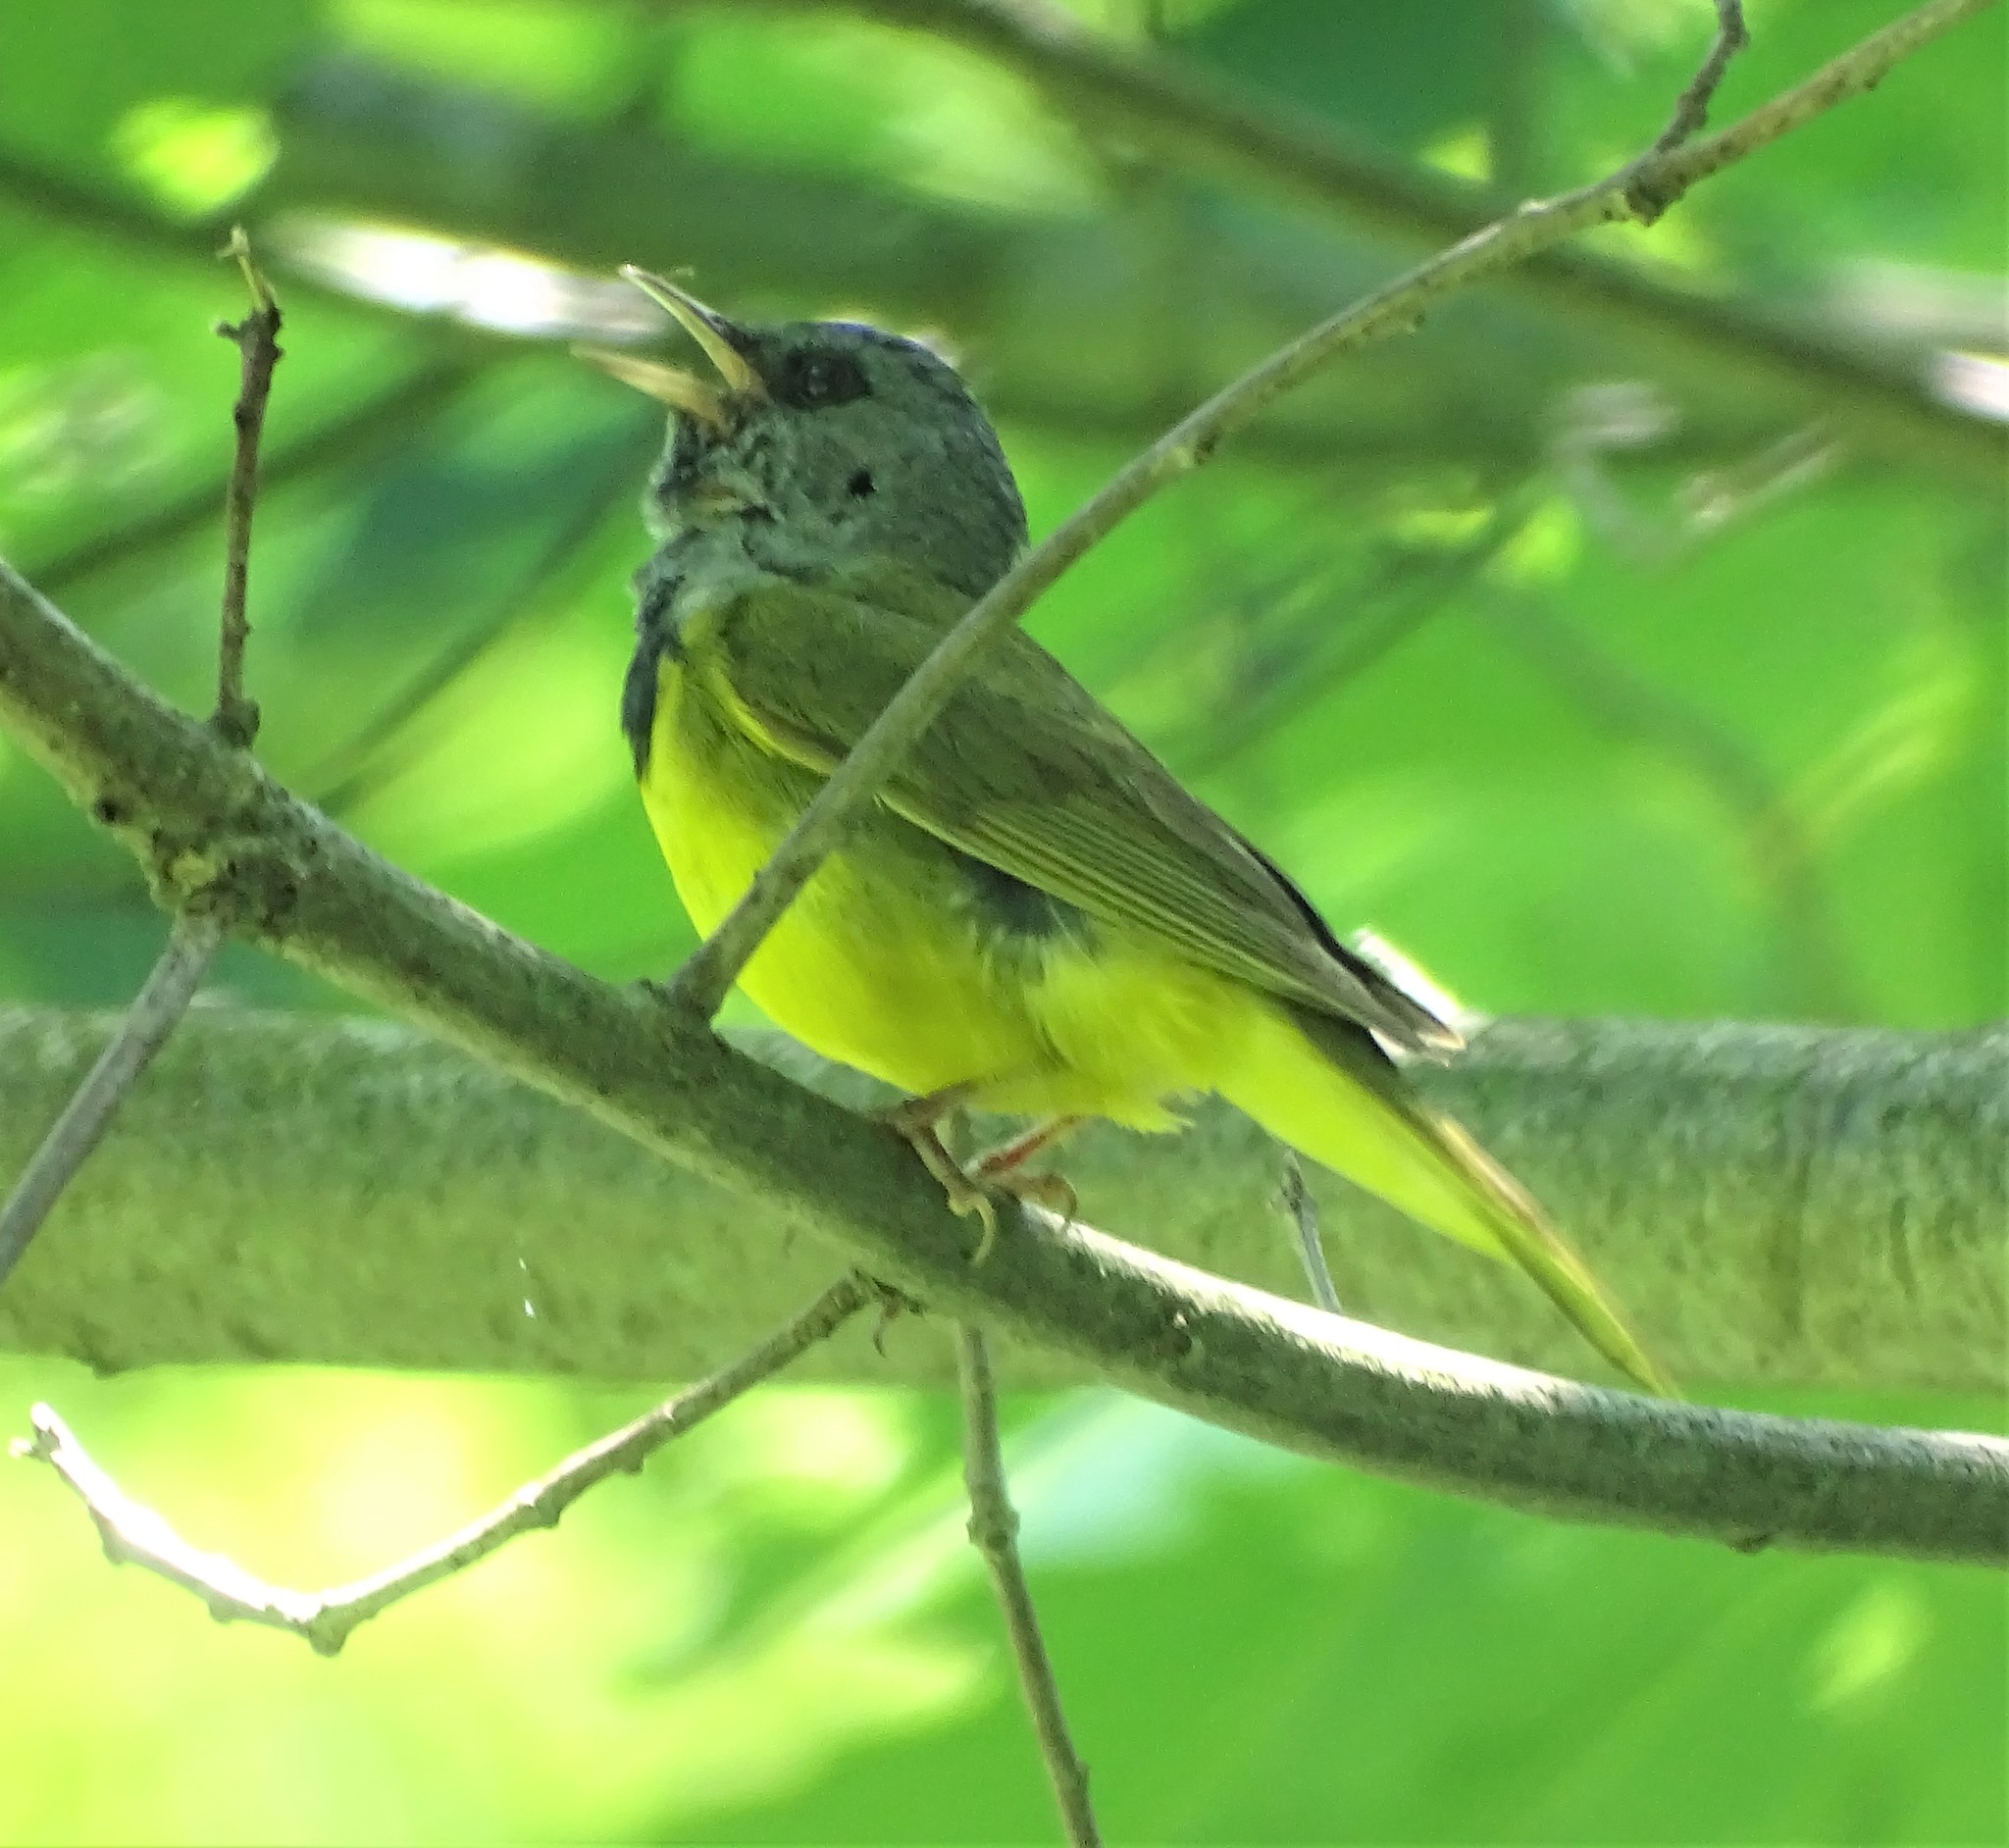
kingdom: Animalia
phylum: Chordata
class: Aves
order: Passeriformes
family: Parulidae
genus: Geothlypis
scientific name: Geothlypis philadelphia
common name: Mourning warbler
